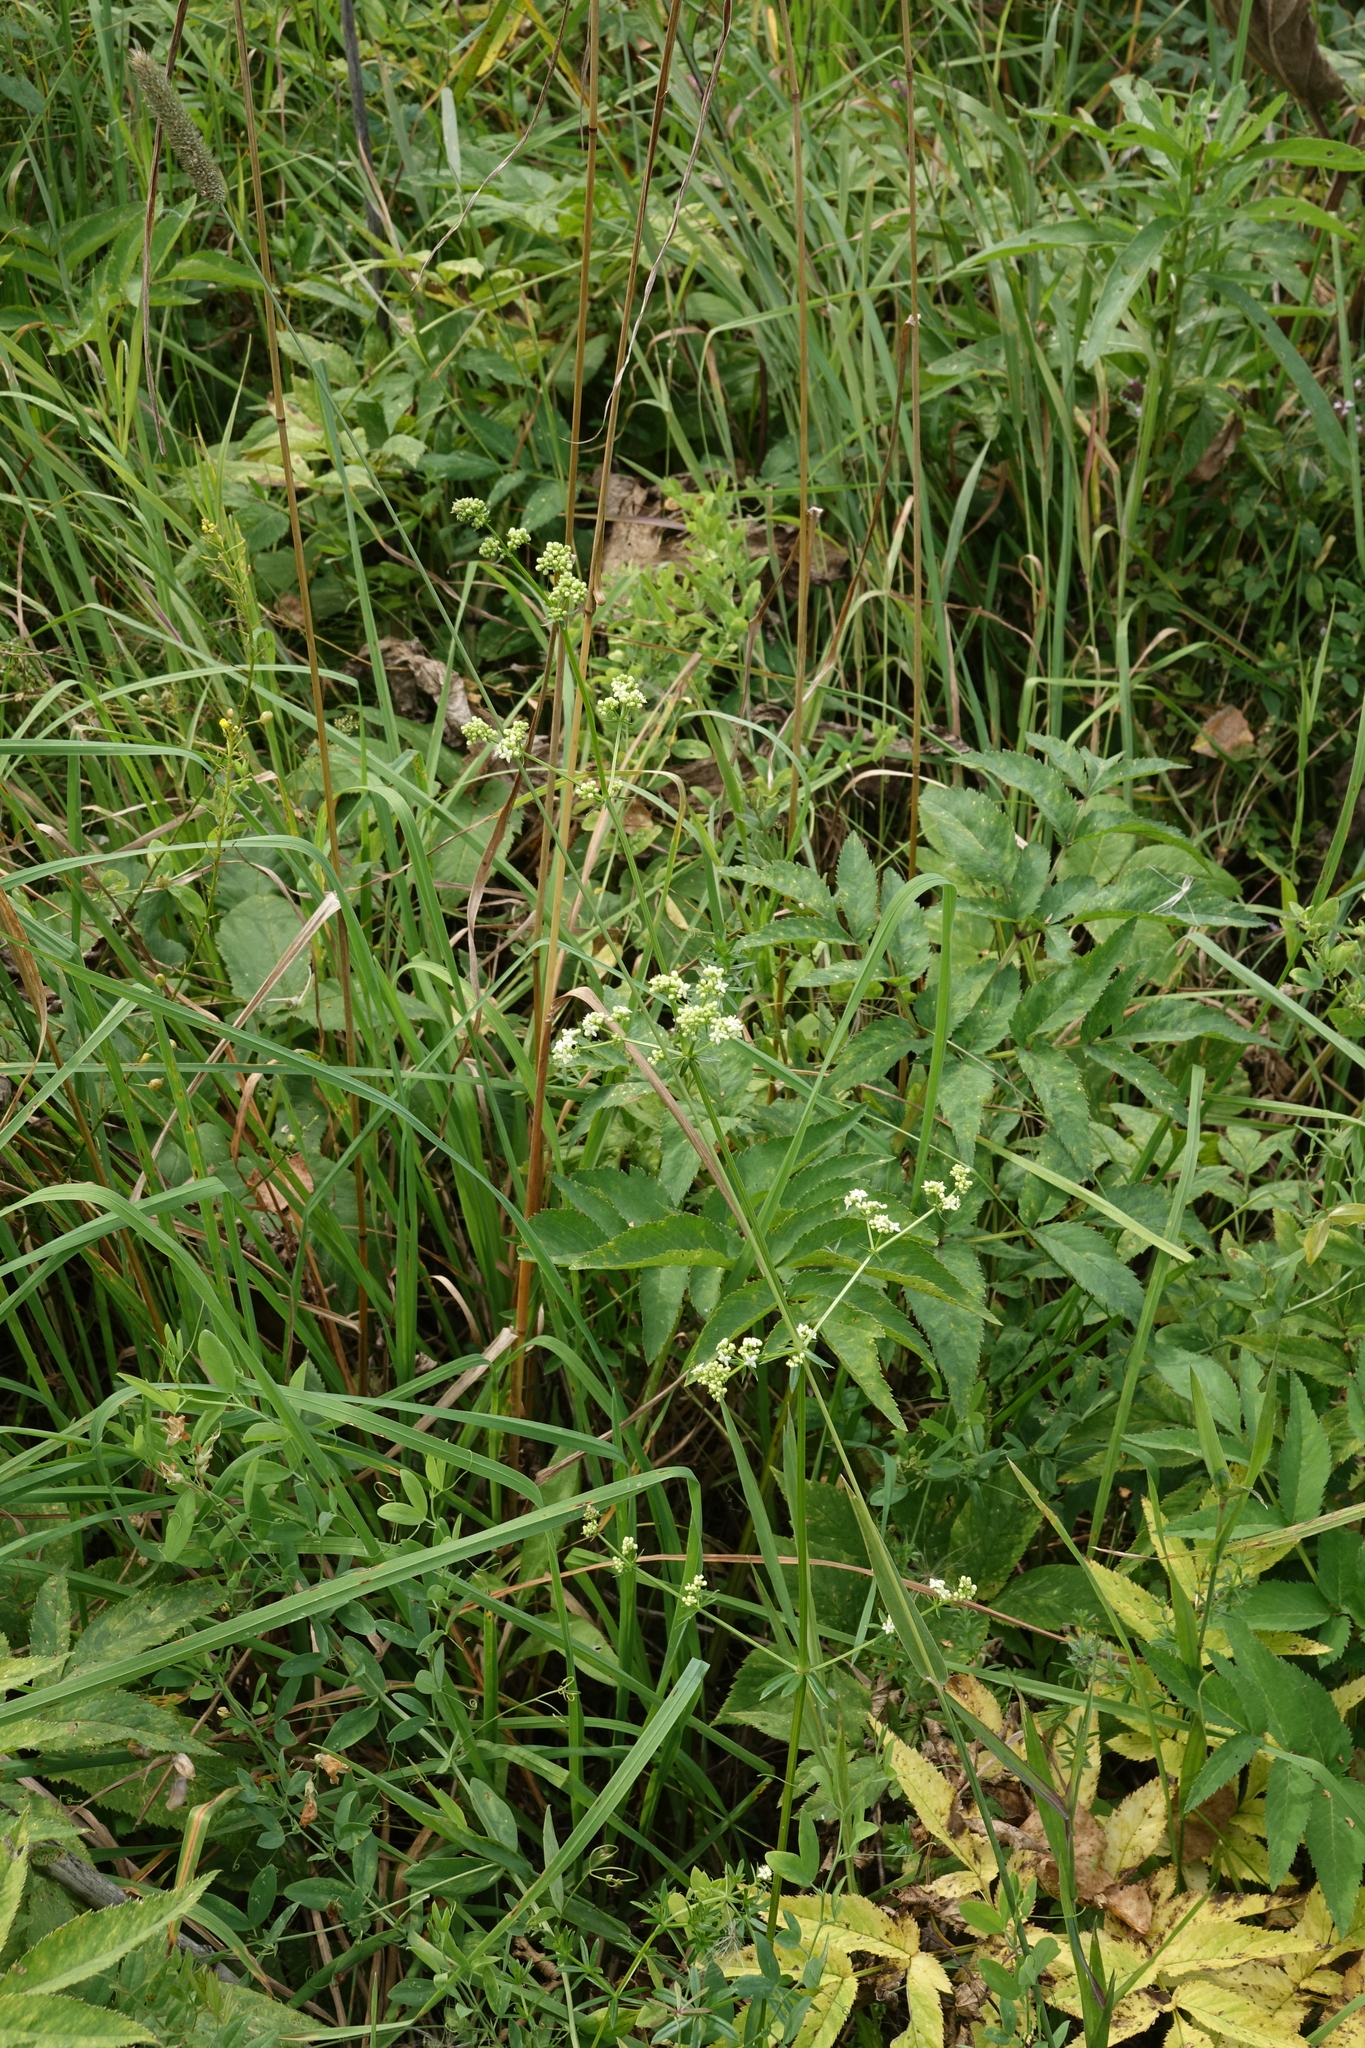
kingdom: Plantae
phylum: Tracheophyta
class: Magnoliopsida
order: Gentianales
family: Rubiaceae
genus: Galium
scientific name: Galium mollugo
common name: Hedge bedstraw
